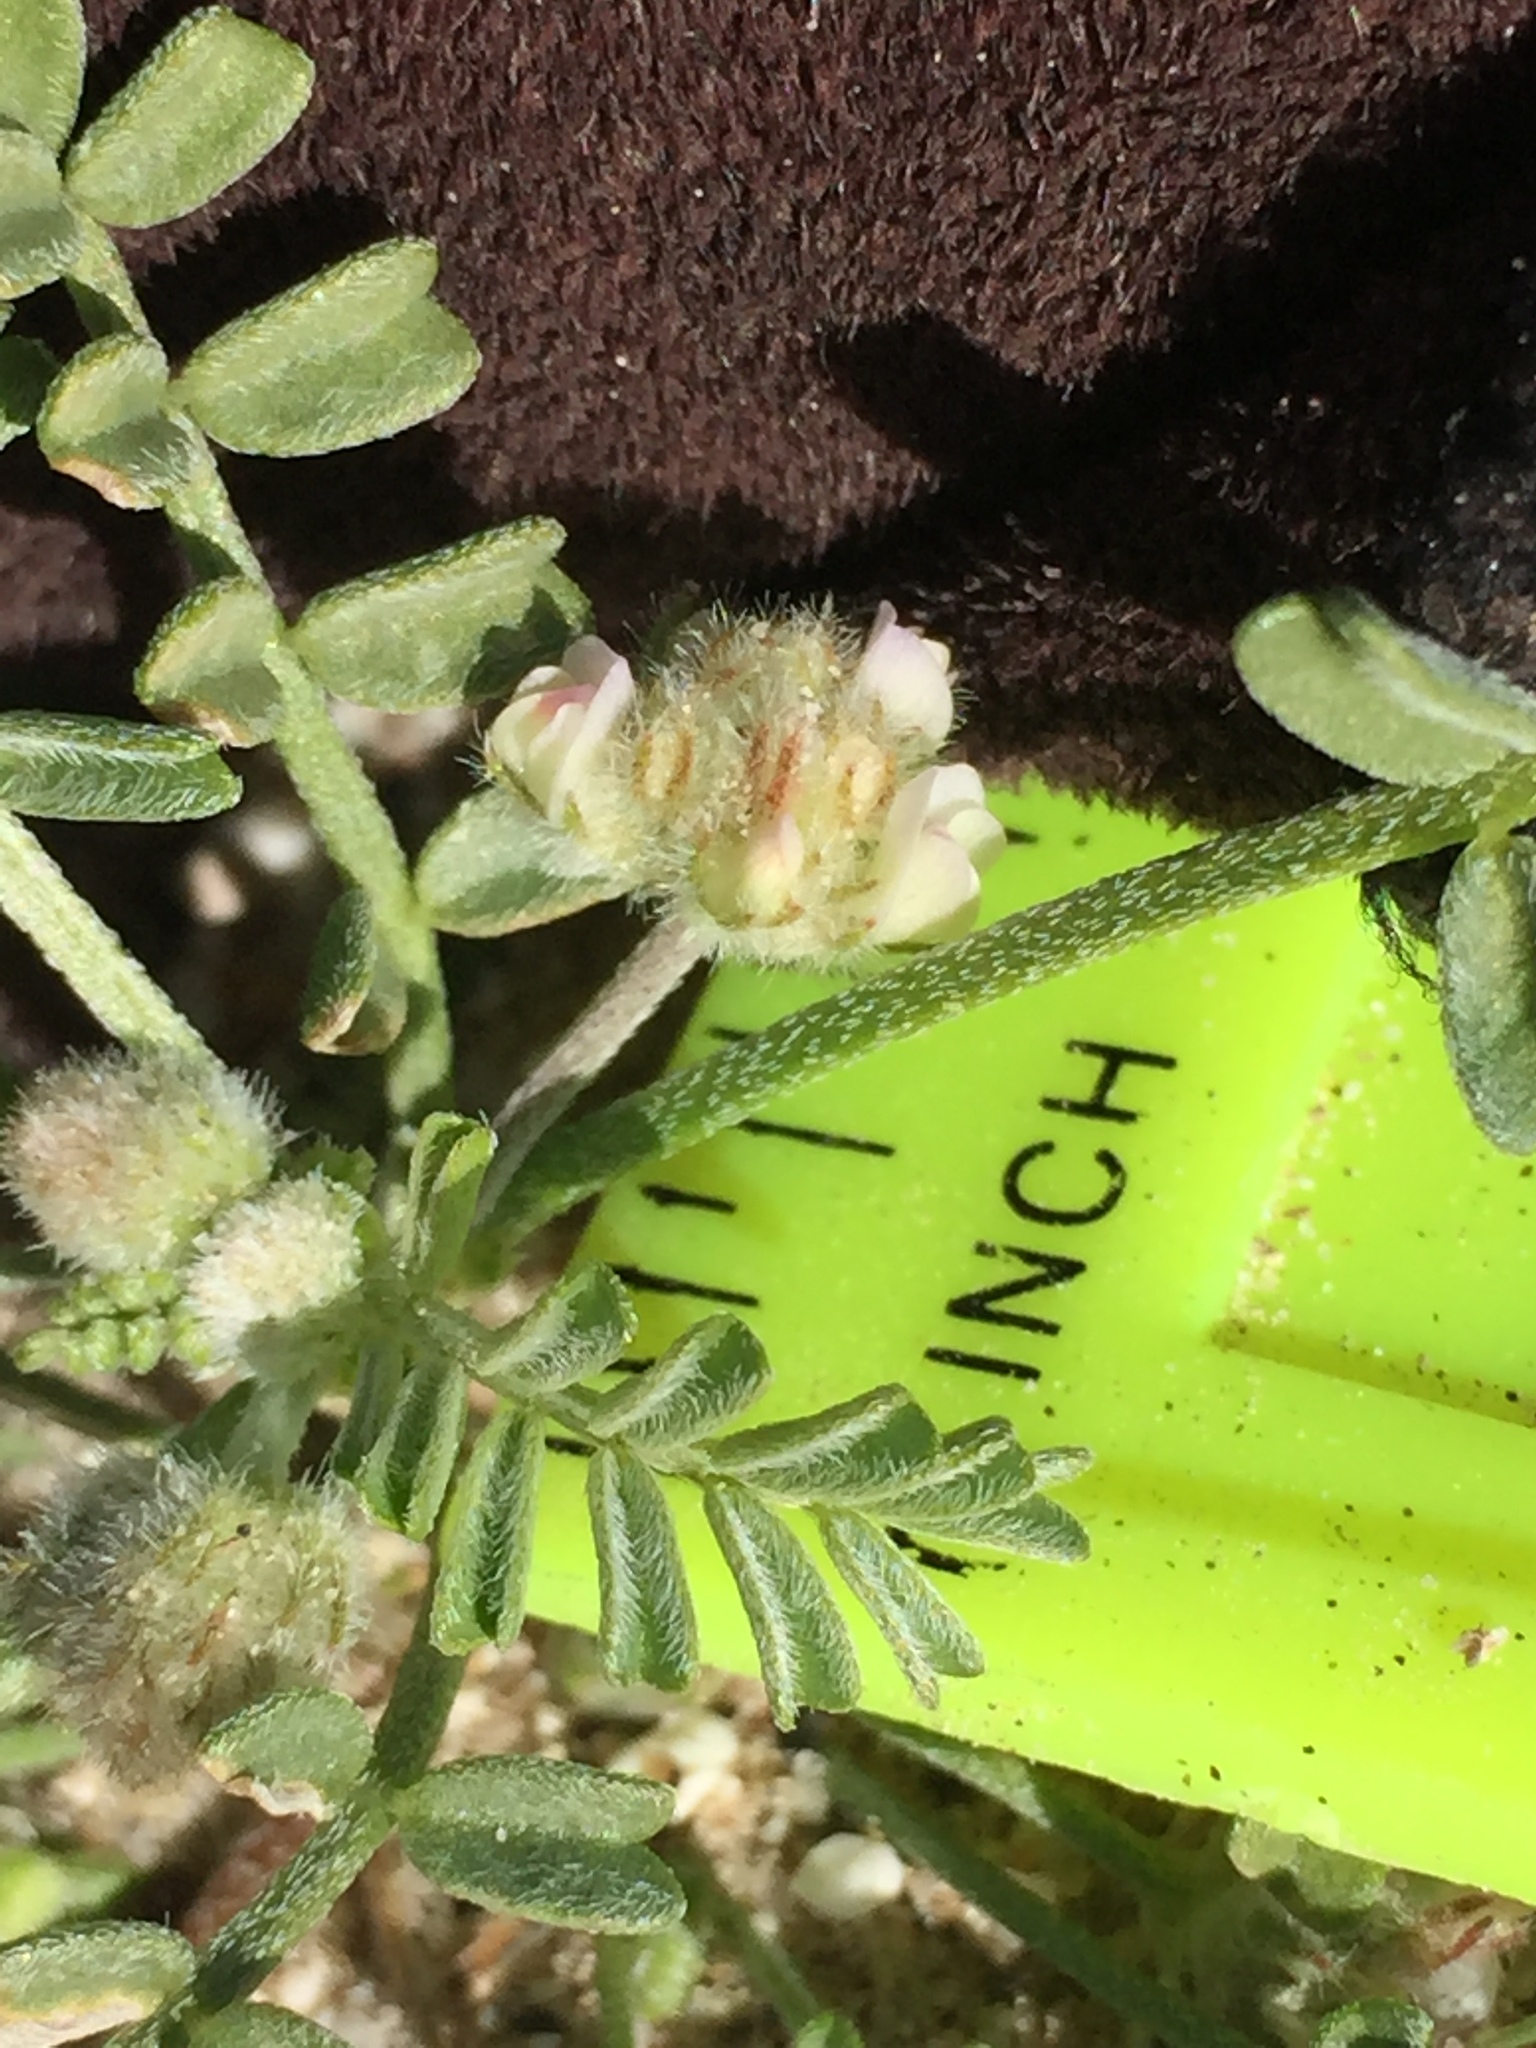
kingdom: Plantae
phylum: Tracheophyta
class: Magnoliopsida
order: Fabales
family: Fabaceae
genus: Astragalus
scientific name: Astragalus didymocarpus
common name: Dwarf white milkvetch
